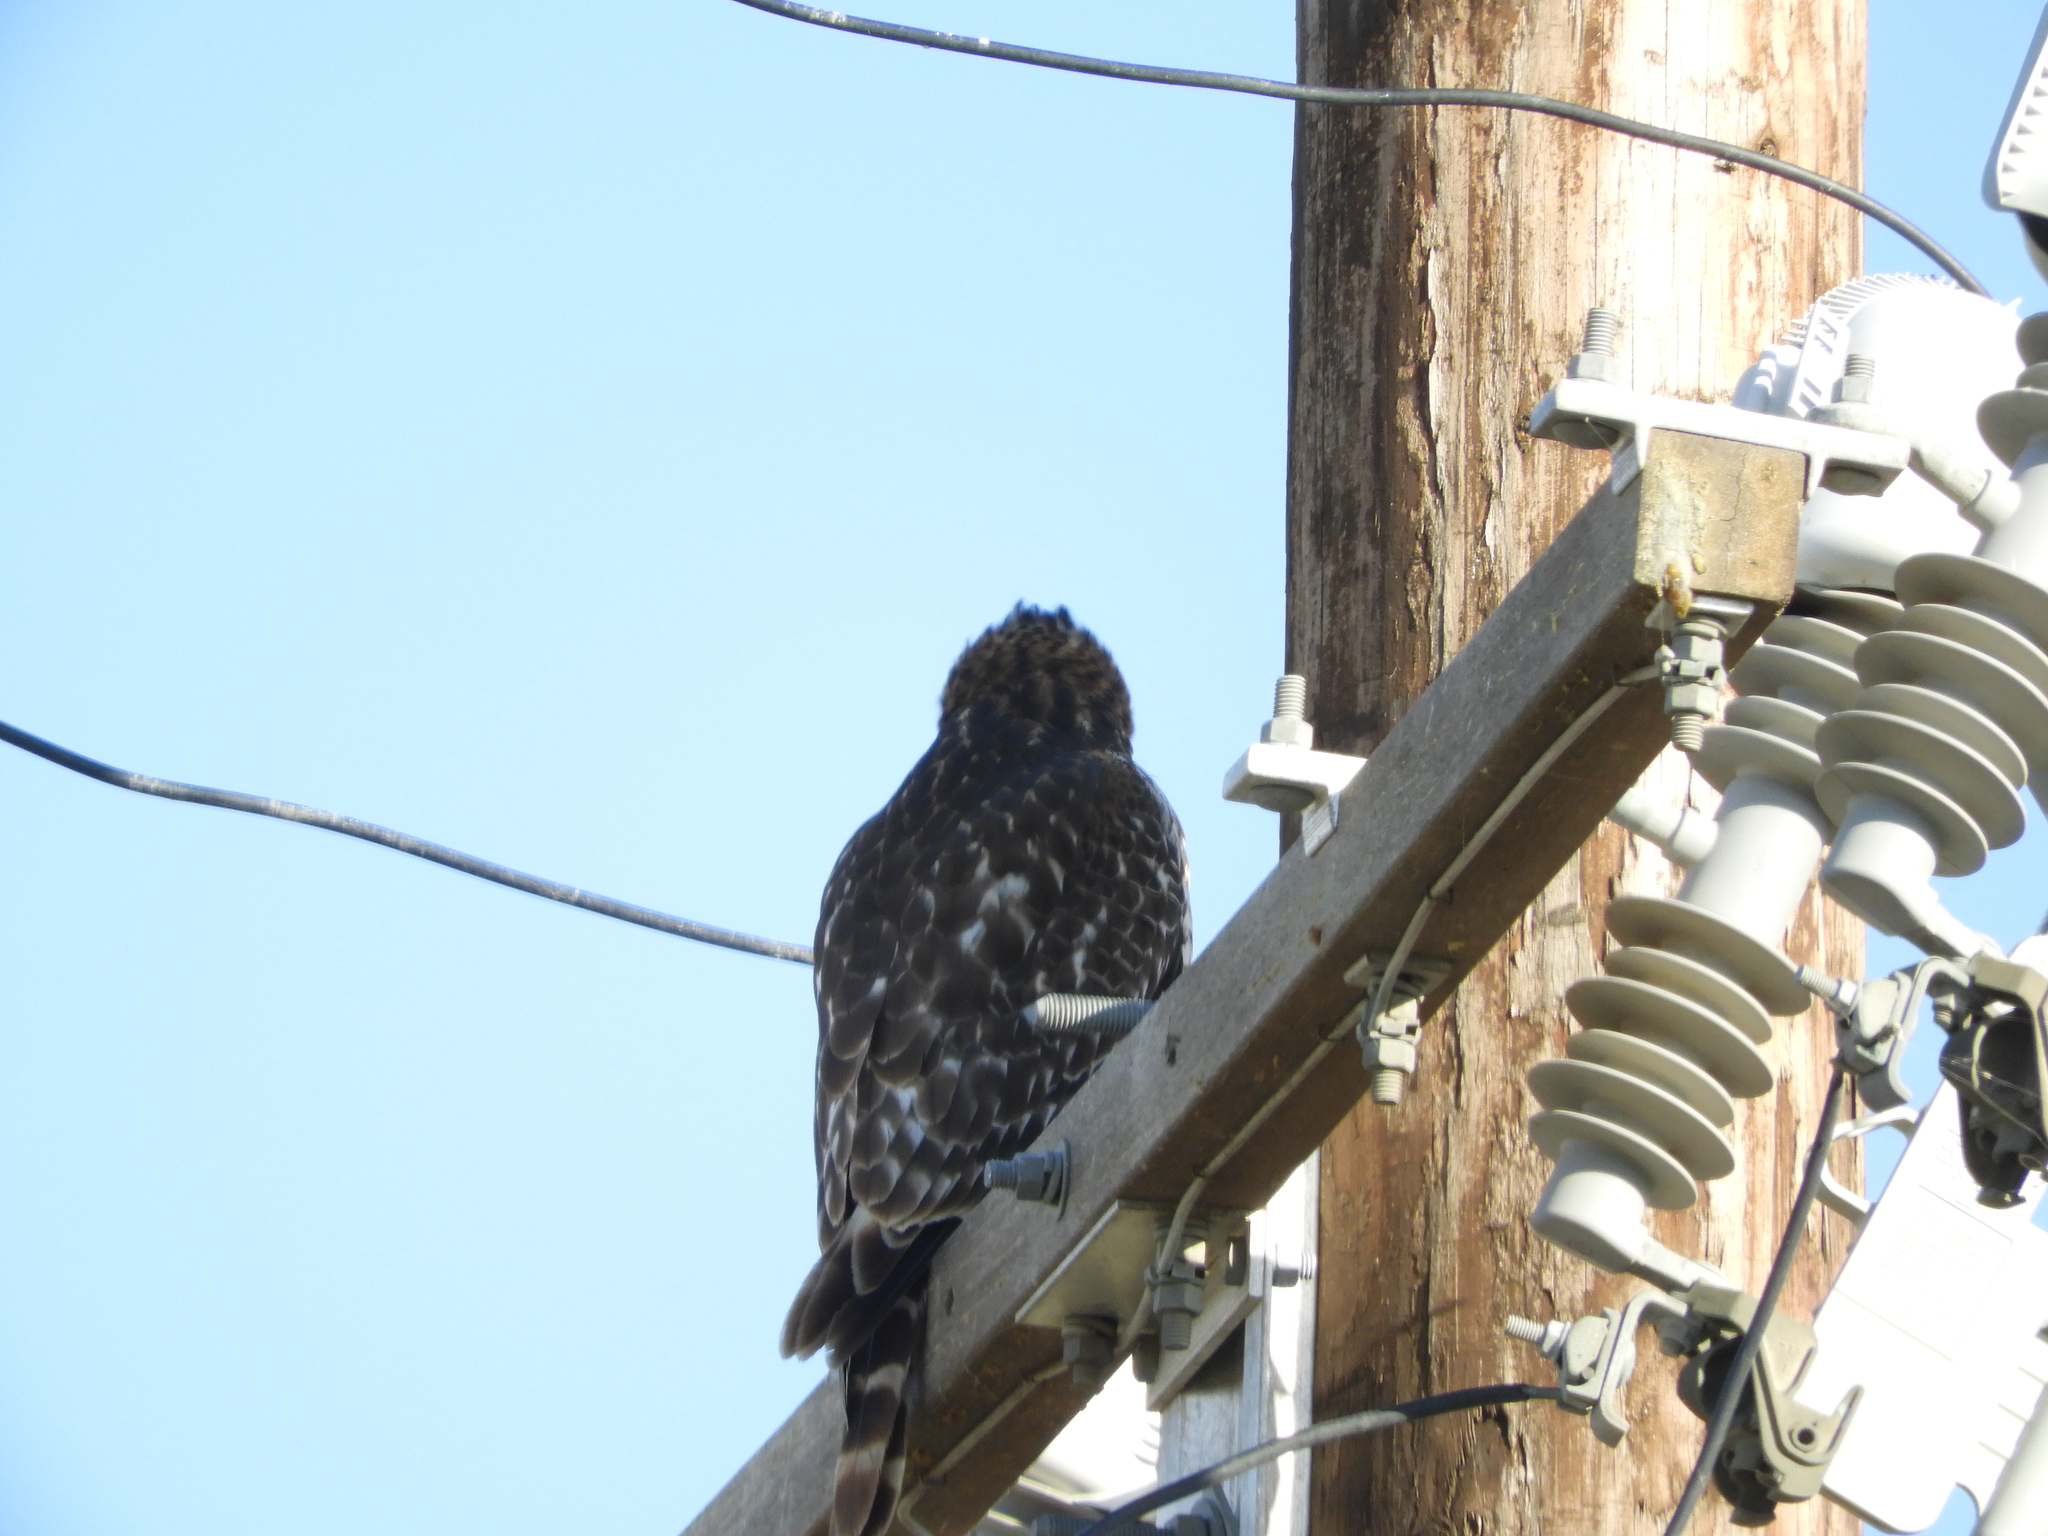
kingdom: Animalia
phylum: Chordata
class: Aves
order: Accipitriformes
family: Accipitridae
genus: Buteo
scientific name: Buteo lineatus
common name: Red-shouldered hawk
